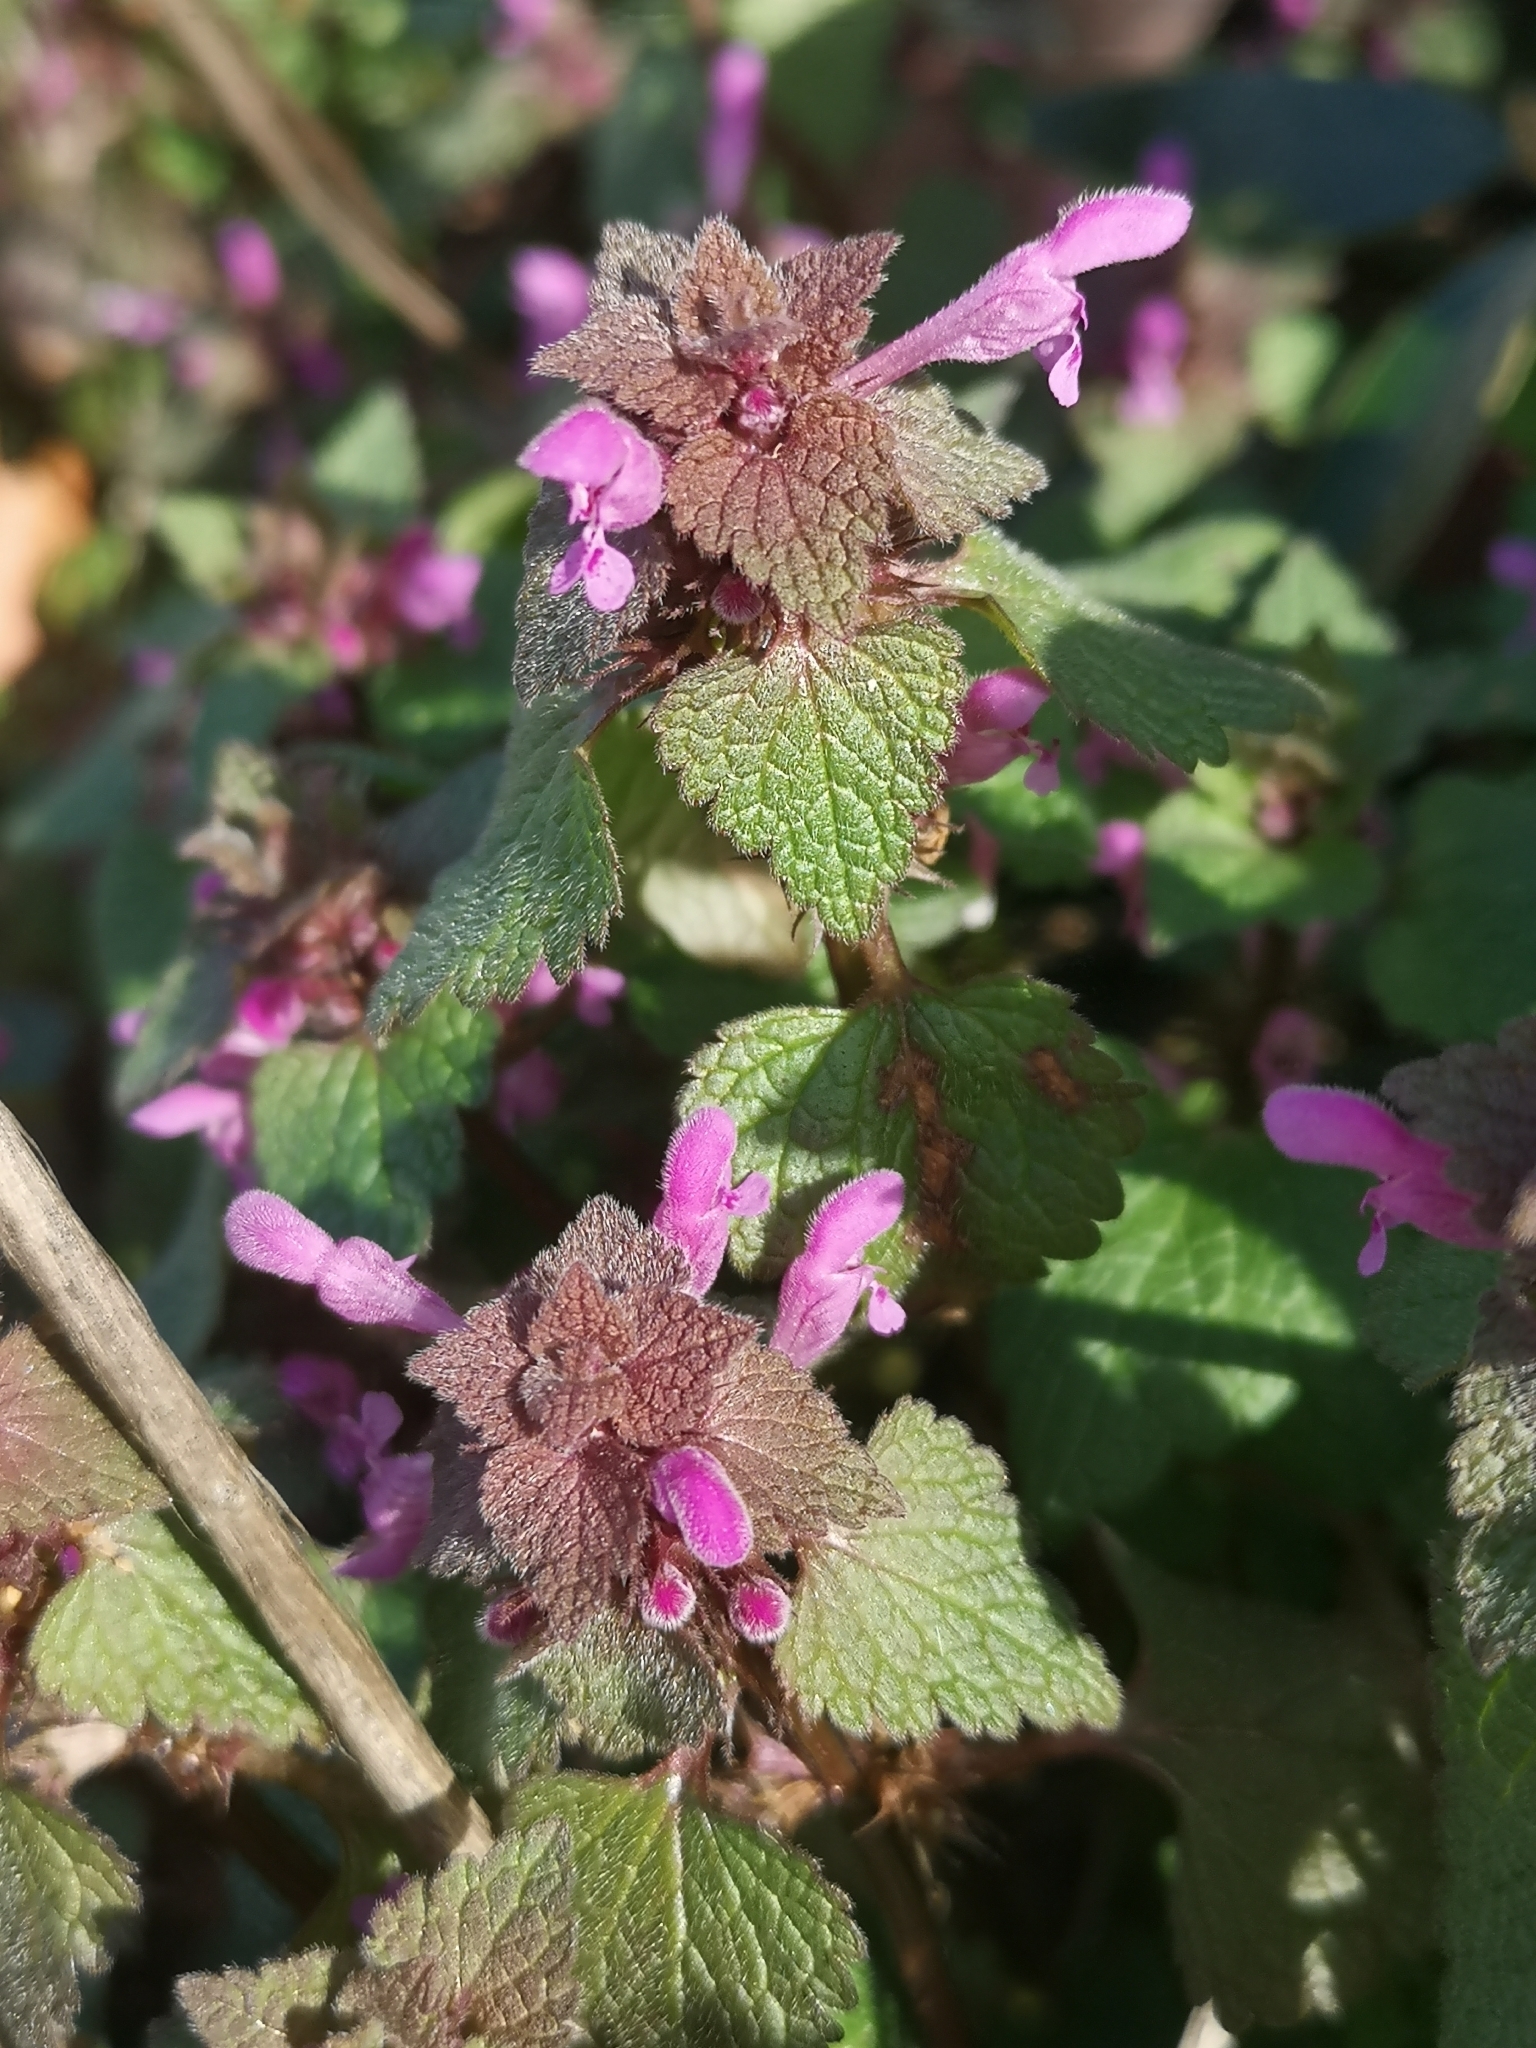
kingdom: Plantae
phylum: Tracheophyta
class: Magnoliopsida
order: Lamiales
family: Lamiaceae
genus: Lamium
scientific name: Lamium purpureum
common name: Red dead-nettle
